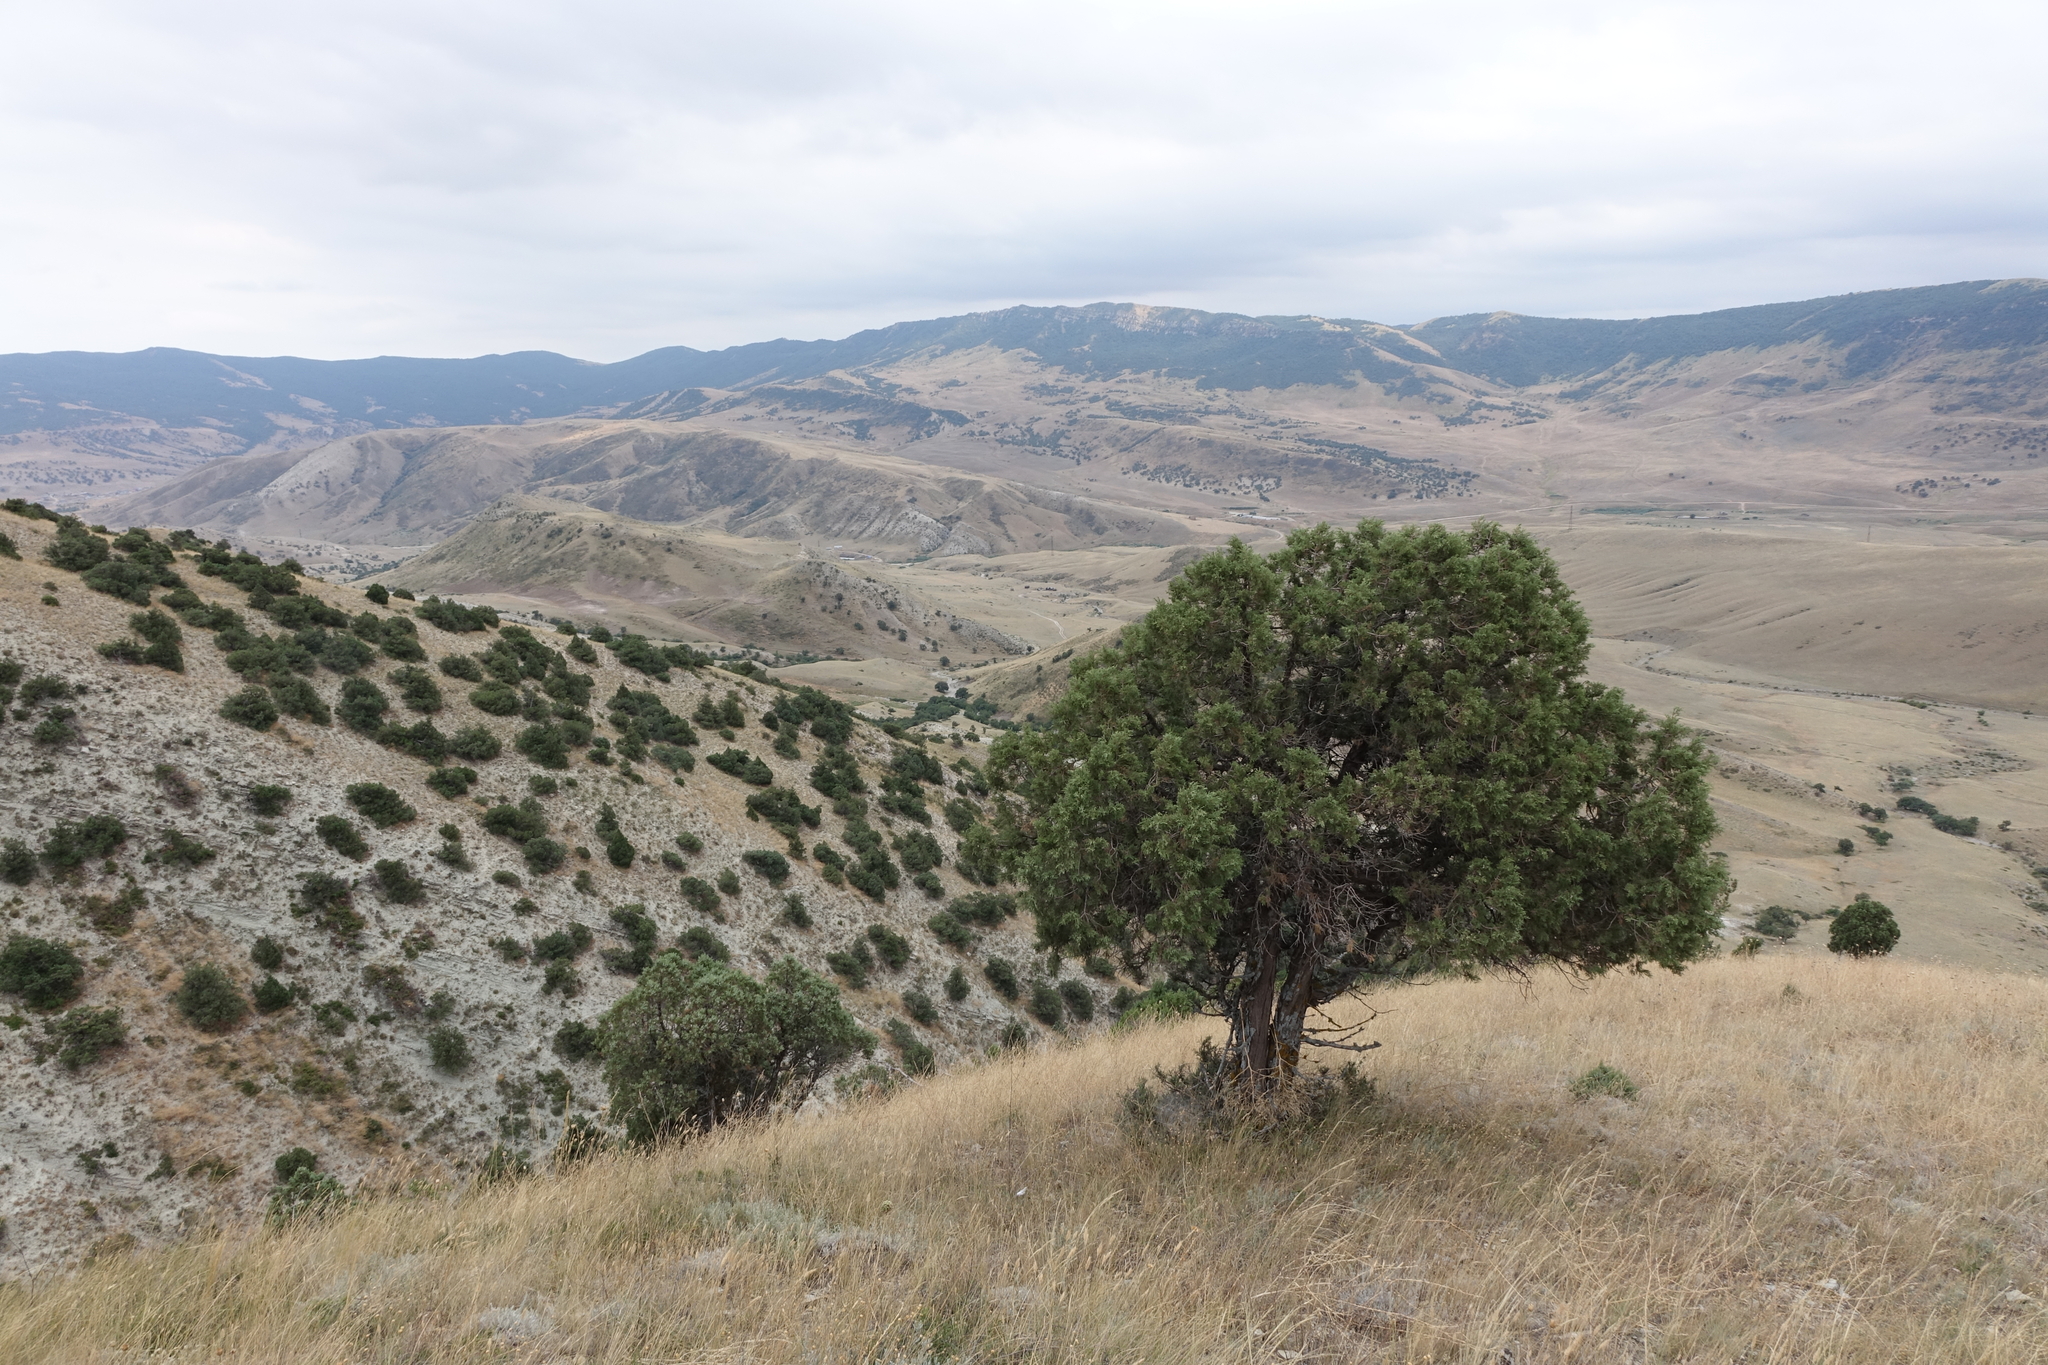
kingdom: Plantae
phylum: Tracheophyta
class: Pinopsida
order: Pinales
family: Cupressaceae
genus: Juniperus
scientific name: Juniperus excelsa
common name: Crimean juniper
